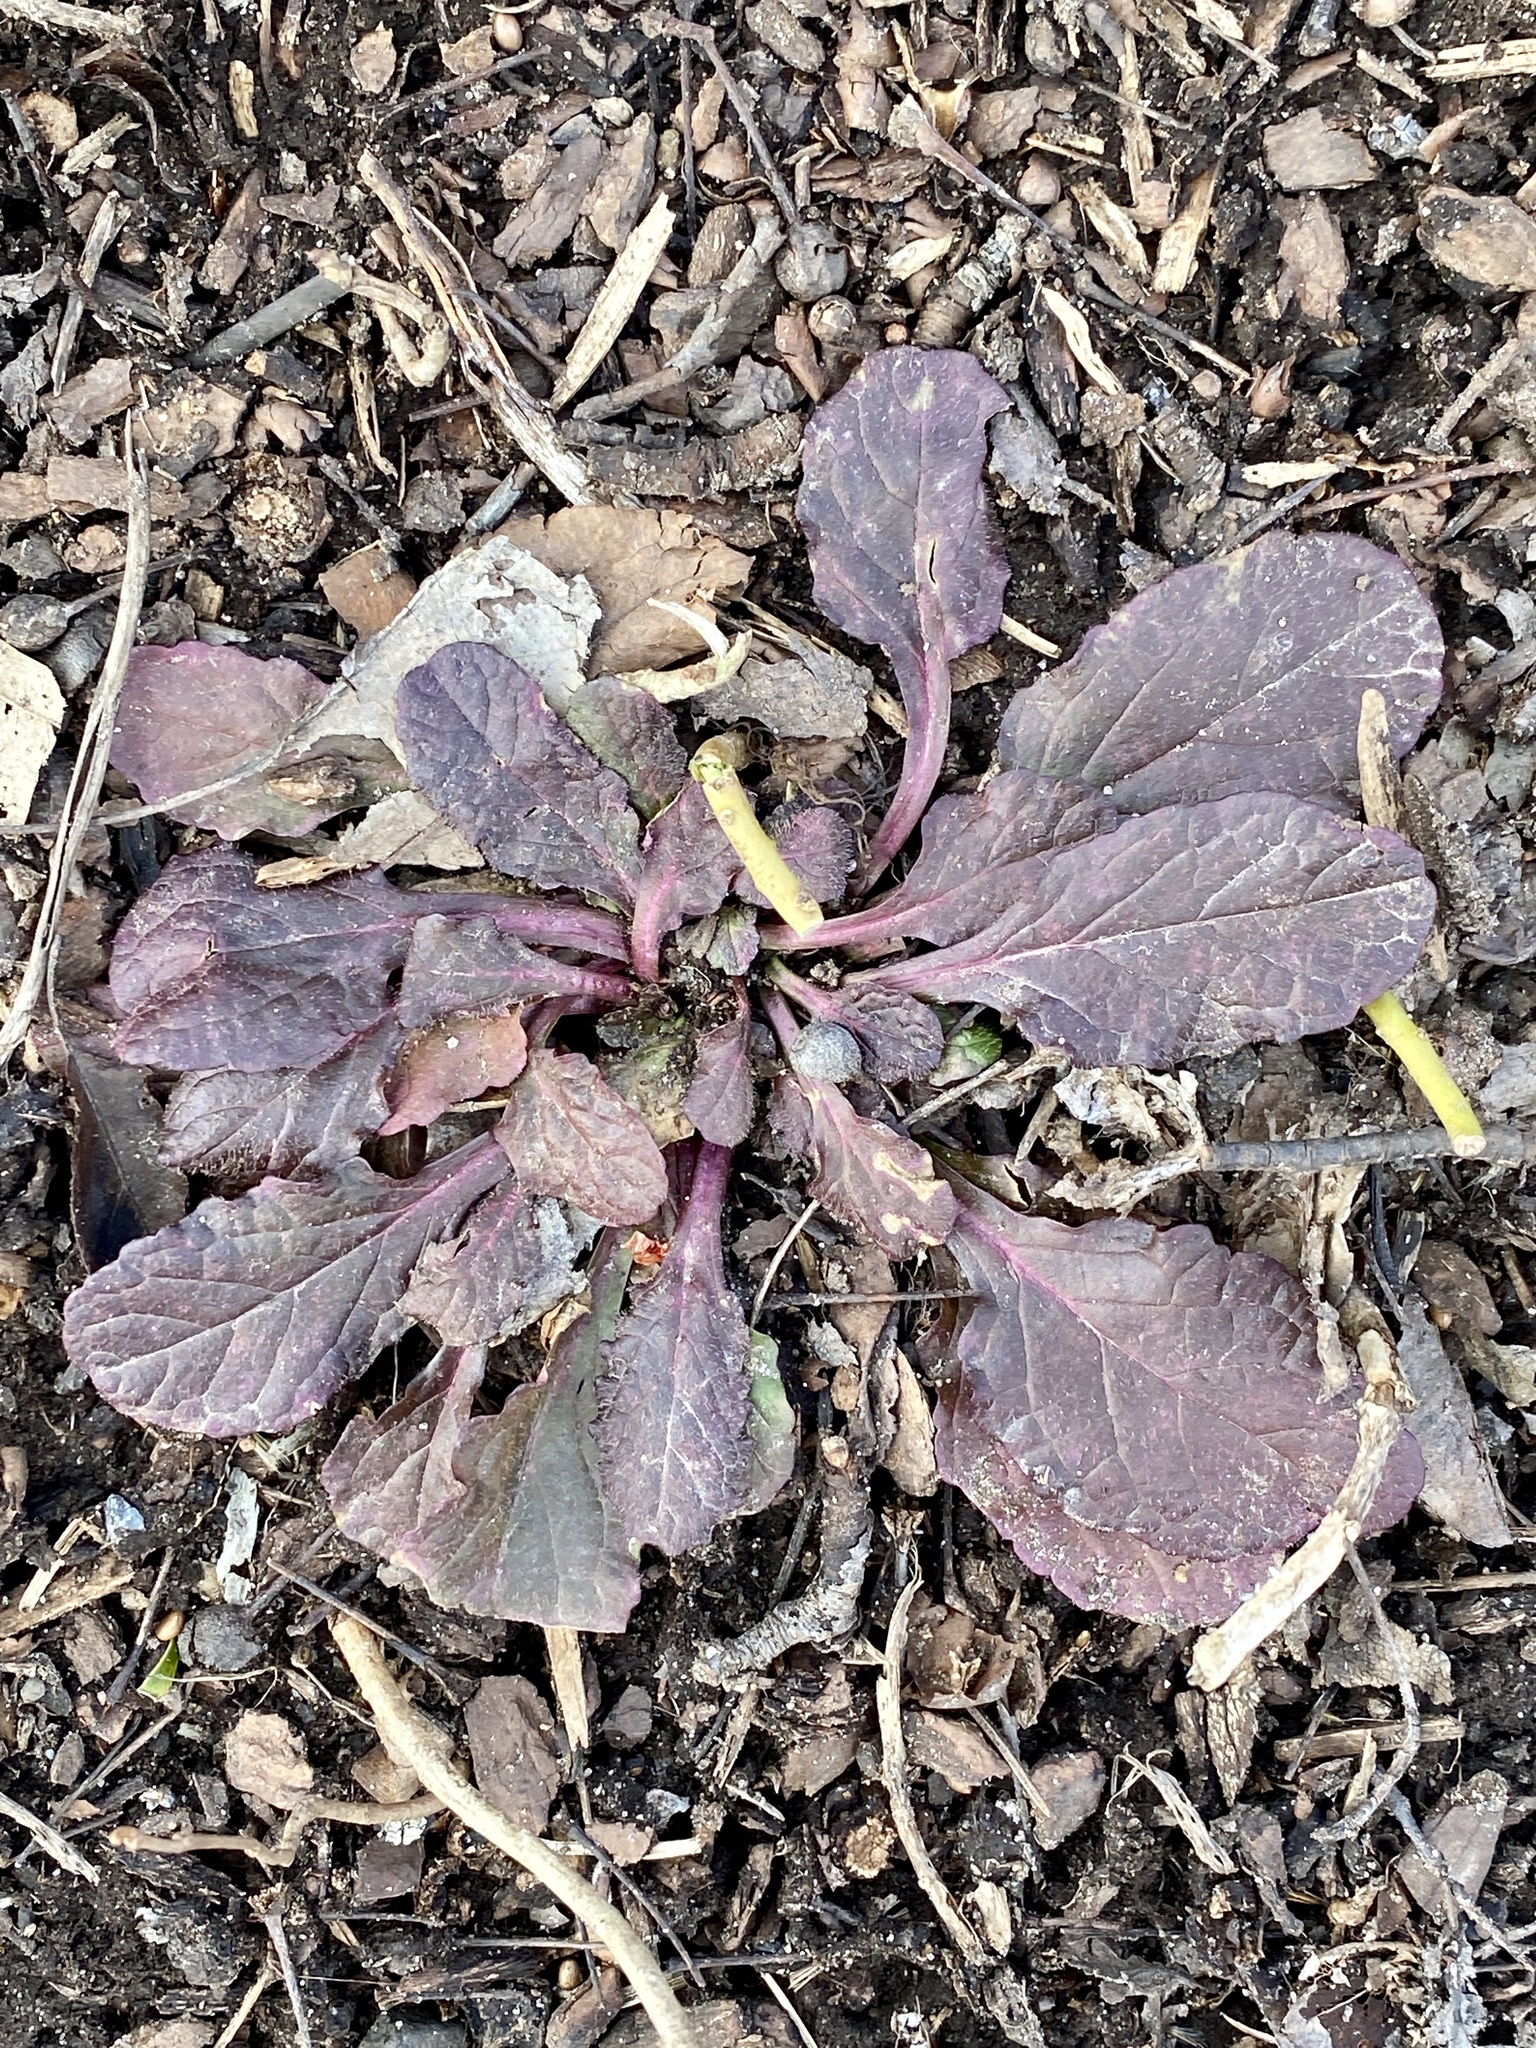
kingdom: Plantae
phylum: Tracheophyta
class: Magnoliopsida
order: Lamiales
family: Lamiaceae
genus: Ajuga
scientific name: Ajuga reptans
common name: Bugle
